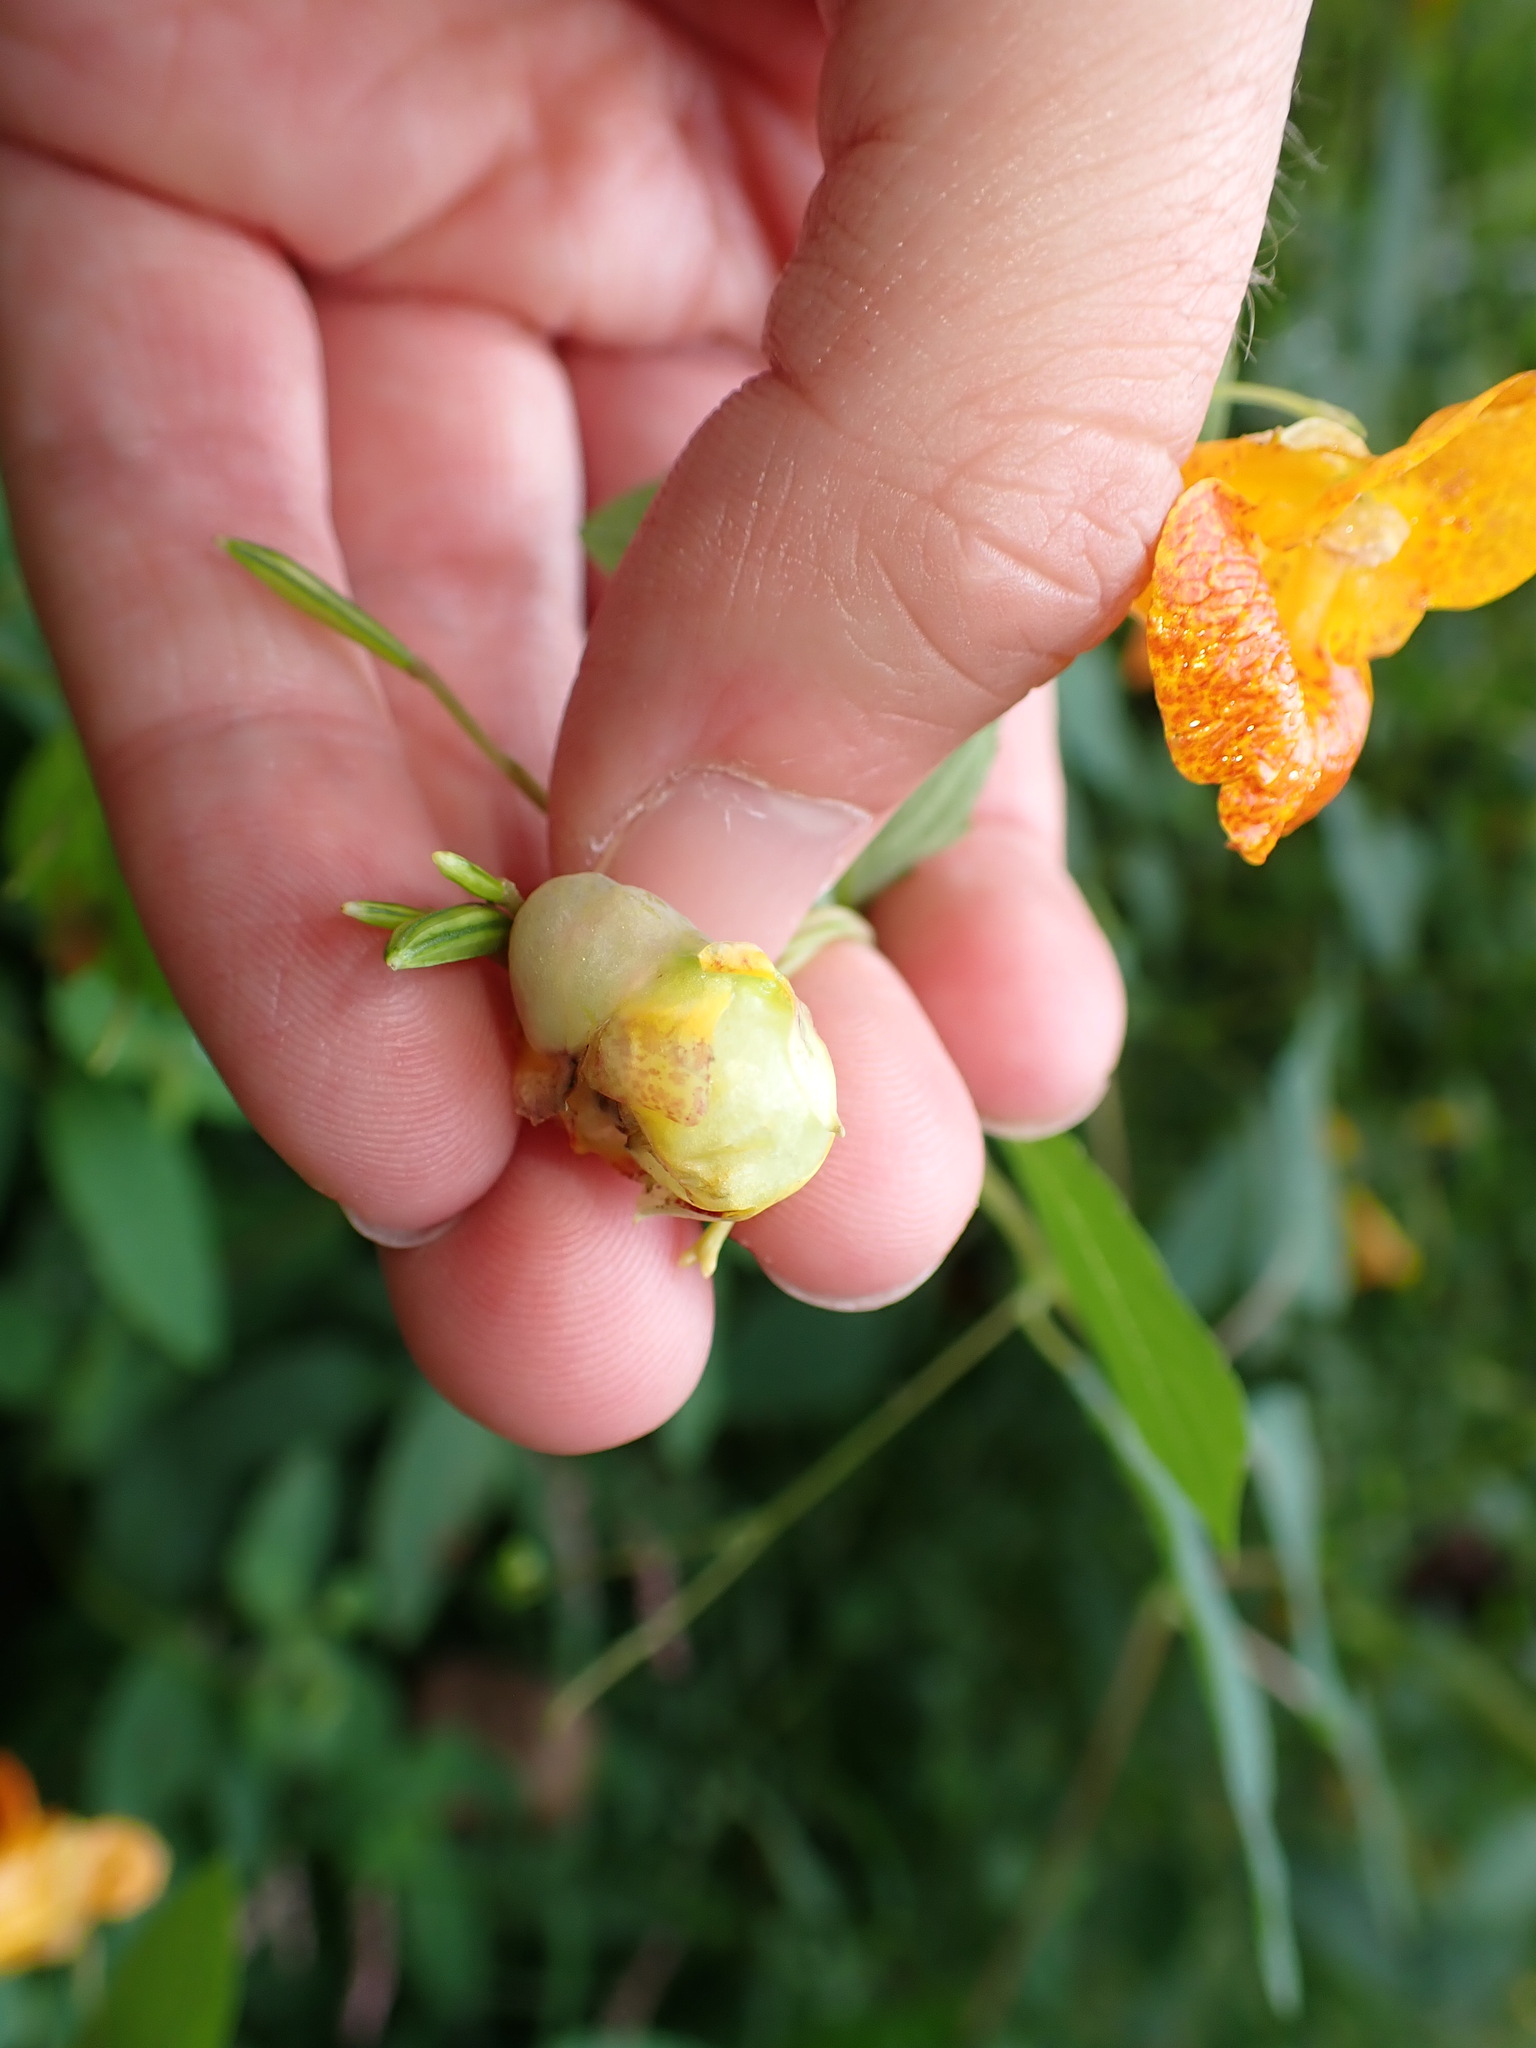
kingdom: Animalia
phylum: Arthropoda
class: Insecta
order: Diptera
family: Cecidomyiidae
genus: Schizomyia
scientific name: Schizomyia impatientis
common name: Jewelweed gall midge
